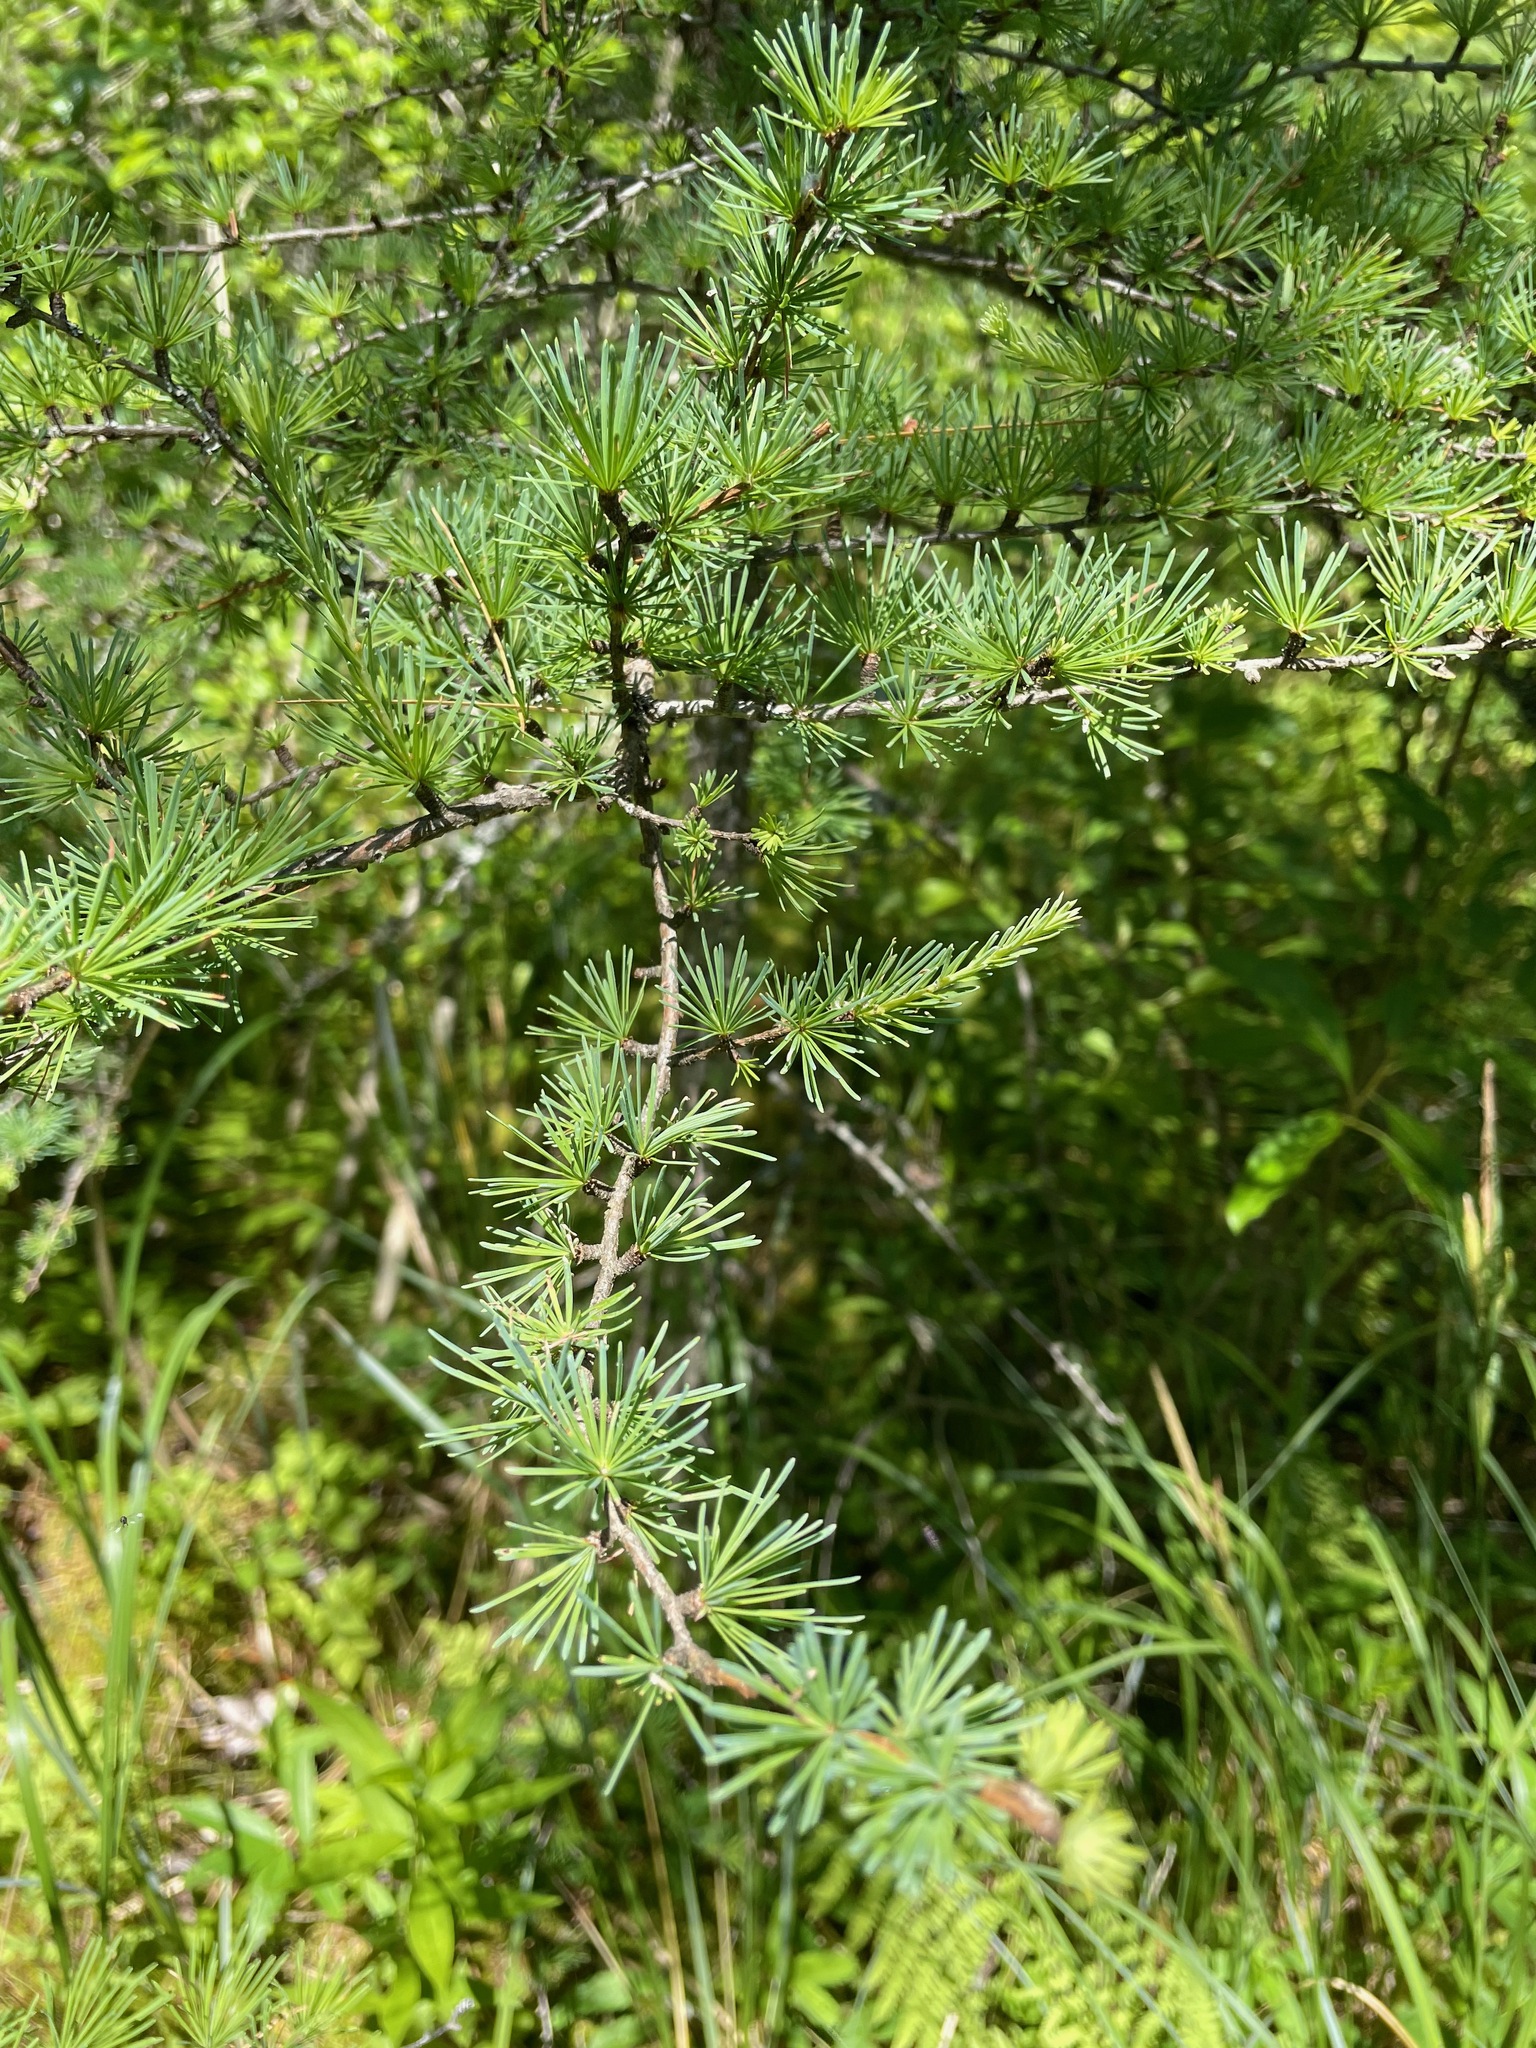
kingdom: Plantae
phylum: Tracheophyta
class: Pinopsida
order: Pinales
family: Pinaceae
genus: Larix
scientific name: Larix laricina
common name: American larch
